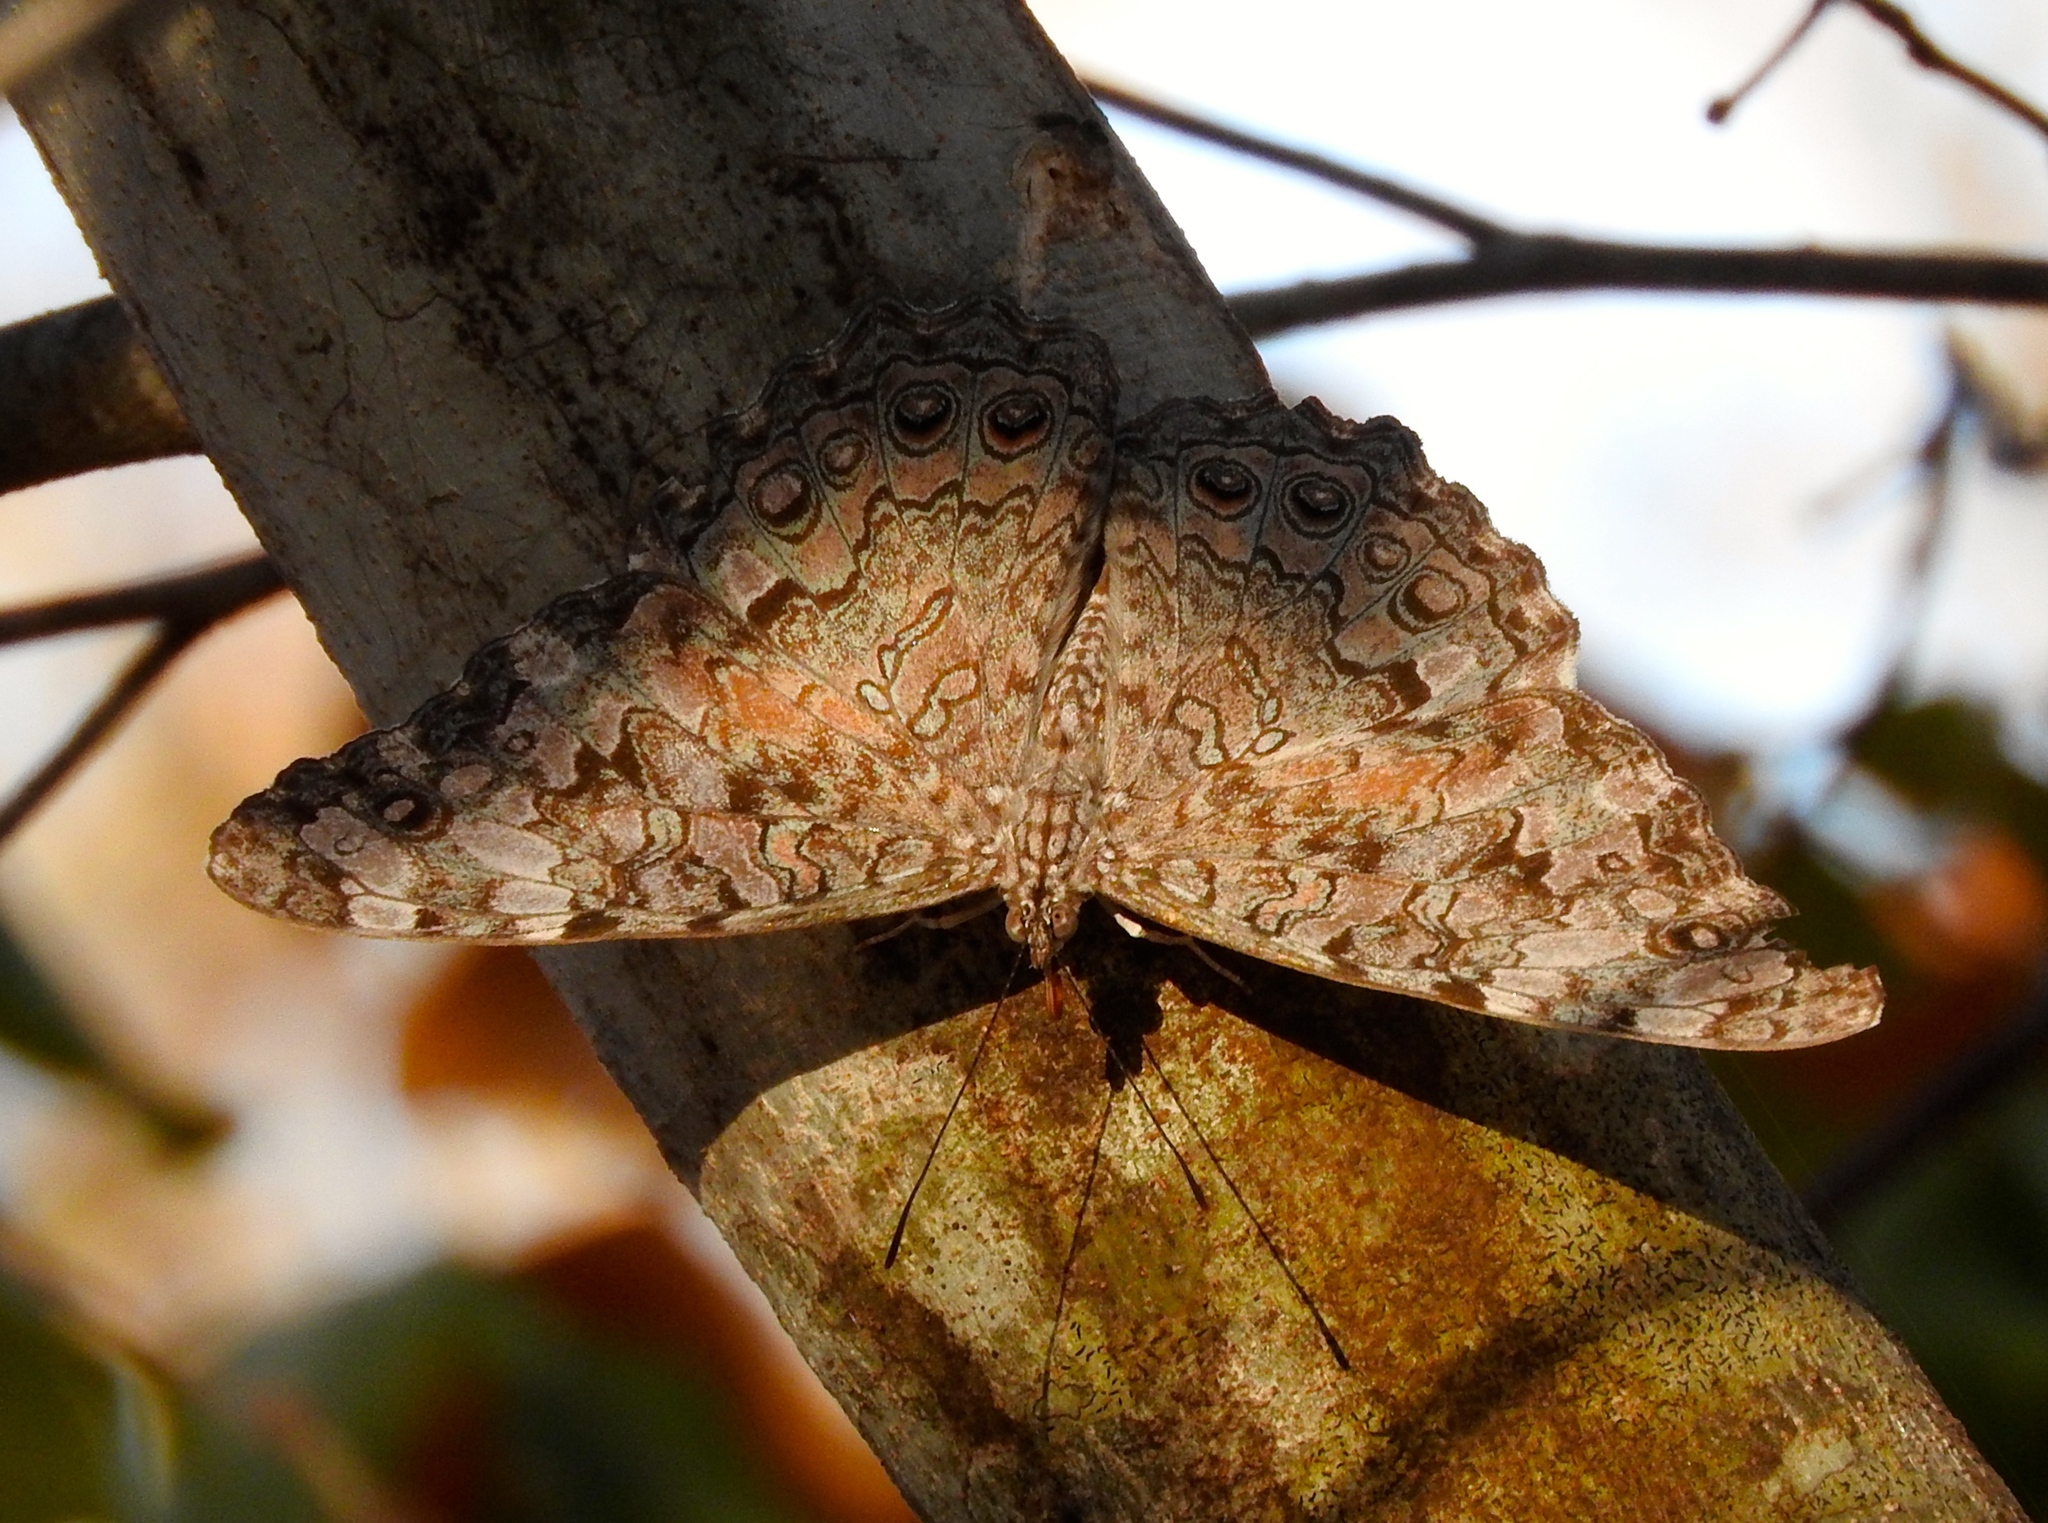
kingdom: Animalia
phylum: Arthropoda
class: Insecta
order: Lepidoptera
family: Nymphalidae
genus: Hamadryas
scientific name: Hamadryas februa
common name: Gray cracker
